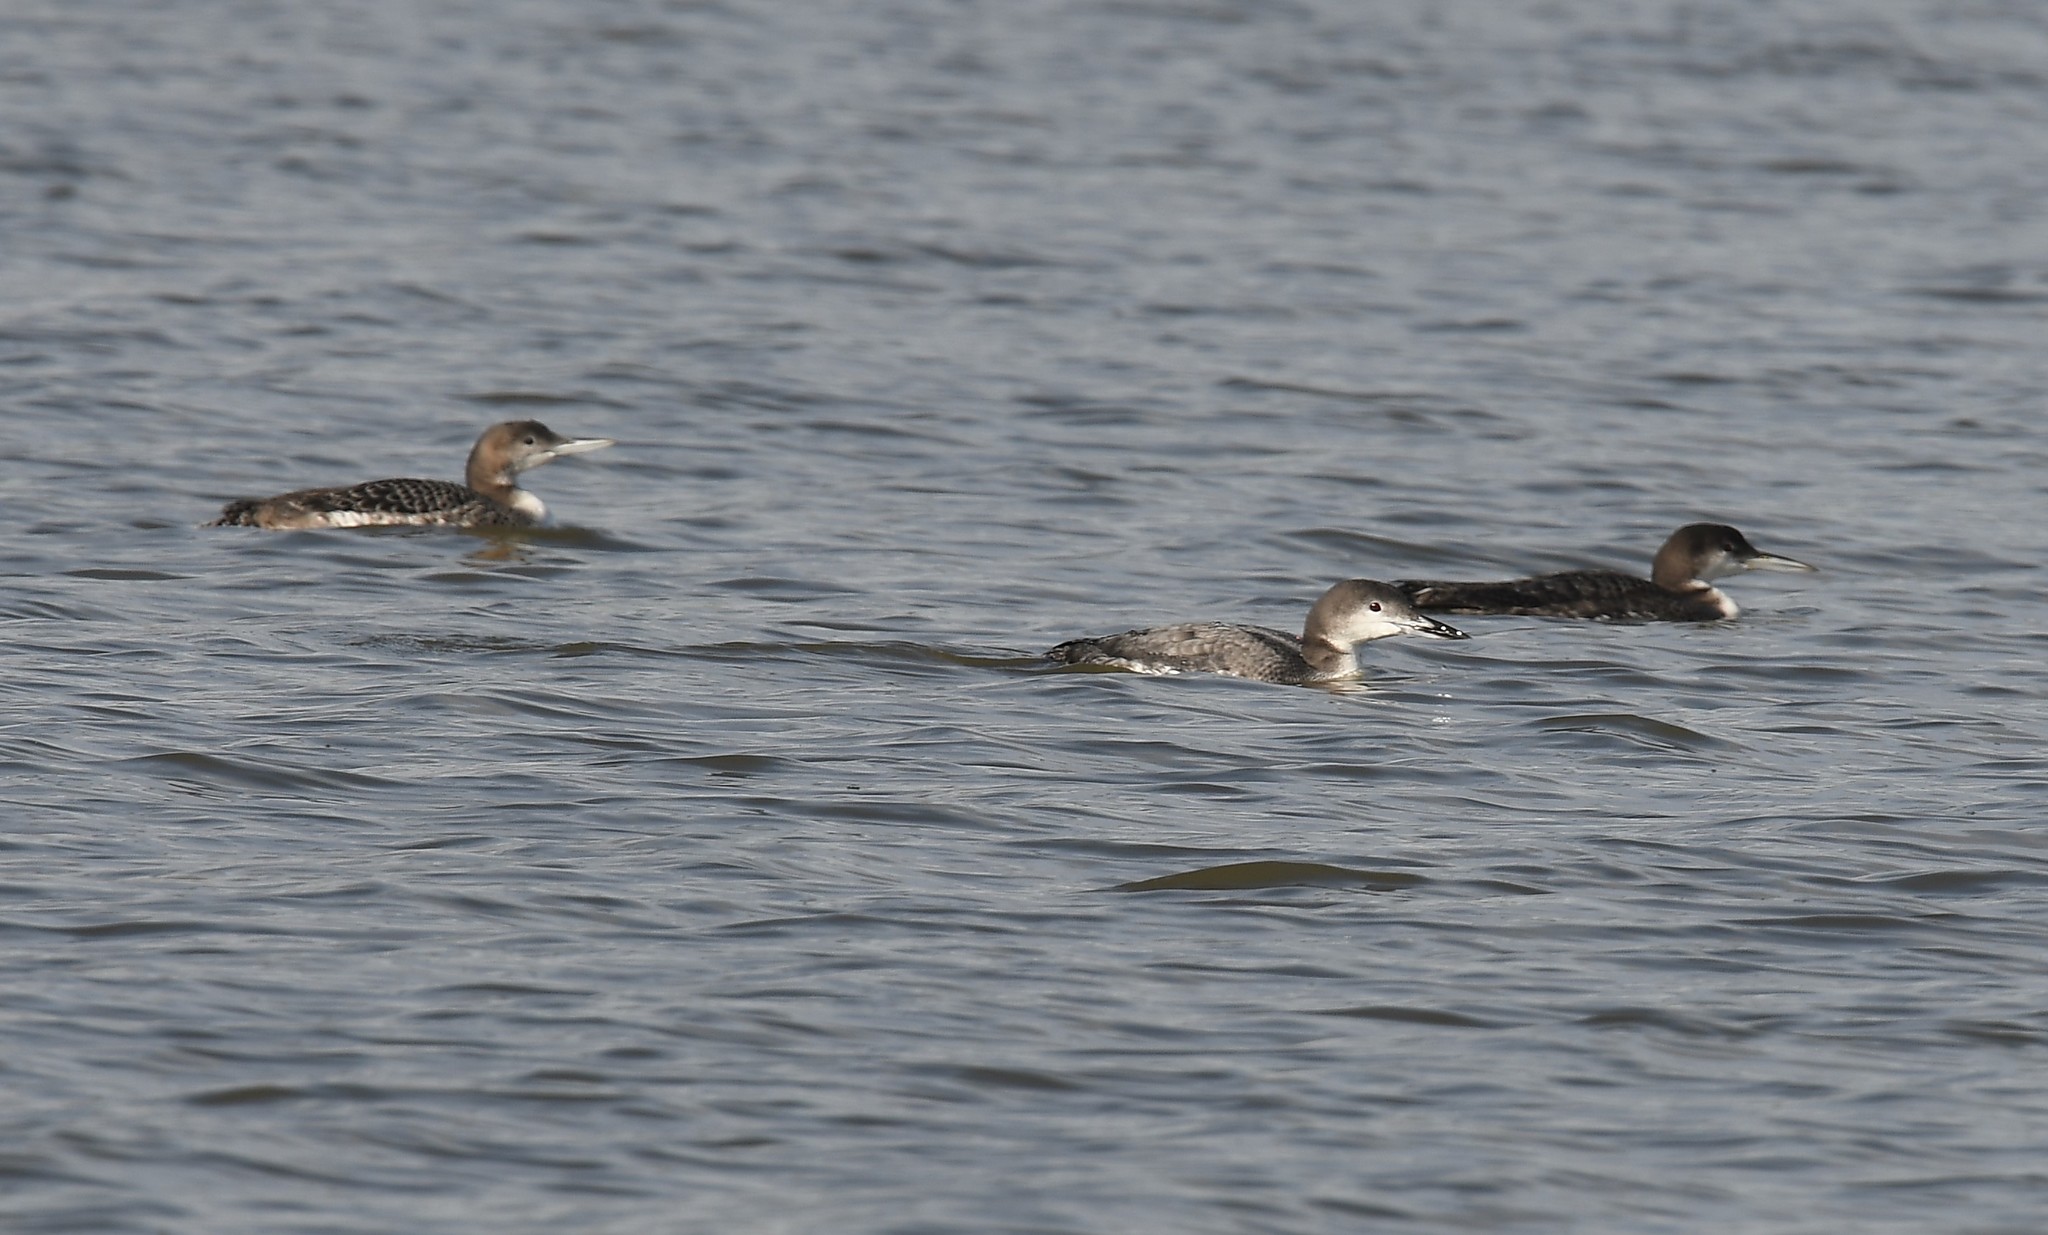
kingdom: Animalia
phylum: Chordata
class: Aves
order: Gaviiformes
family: Gaviidae
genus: Gavia
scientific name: Gavia immer
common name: Common loon
